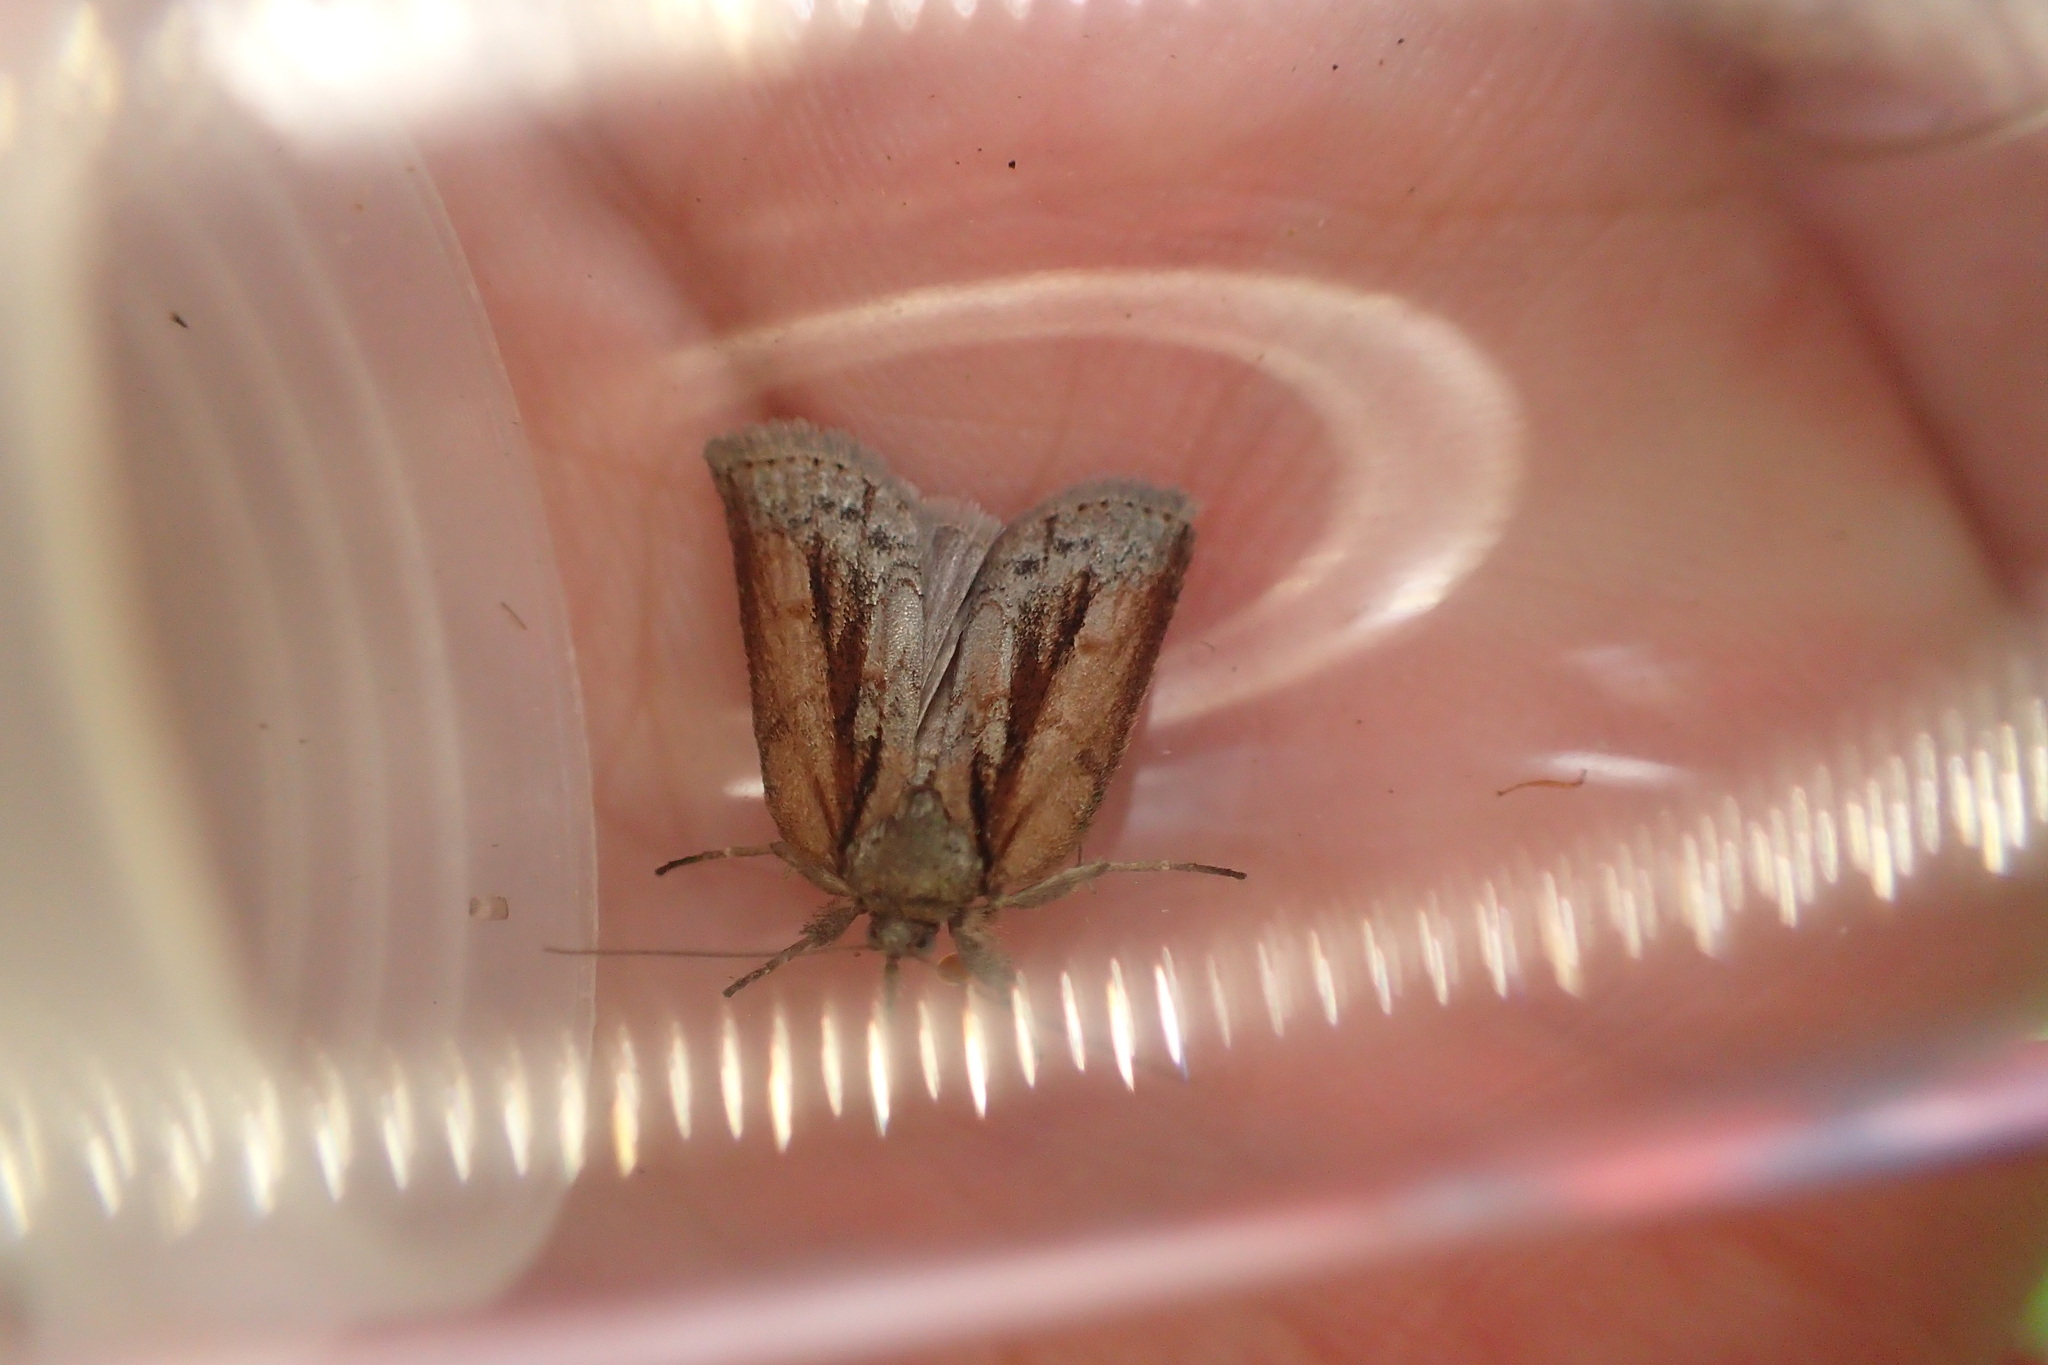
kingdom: Animalia
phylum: Arthropoda
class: Insecta
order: Lepidoptera
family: Nolidae
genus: Nycteola
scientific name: Nycteola revayana
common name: Oak nycteoline
